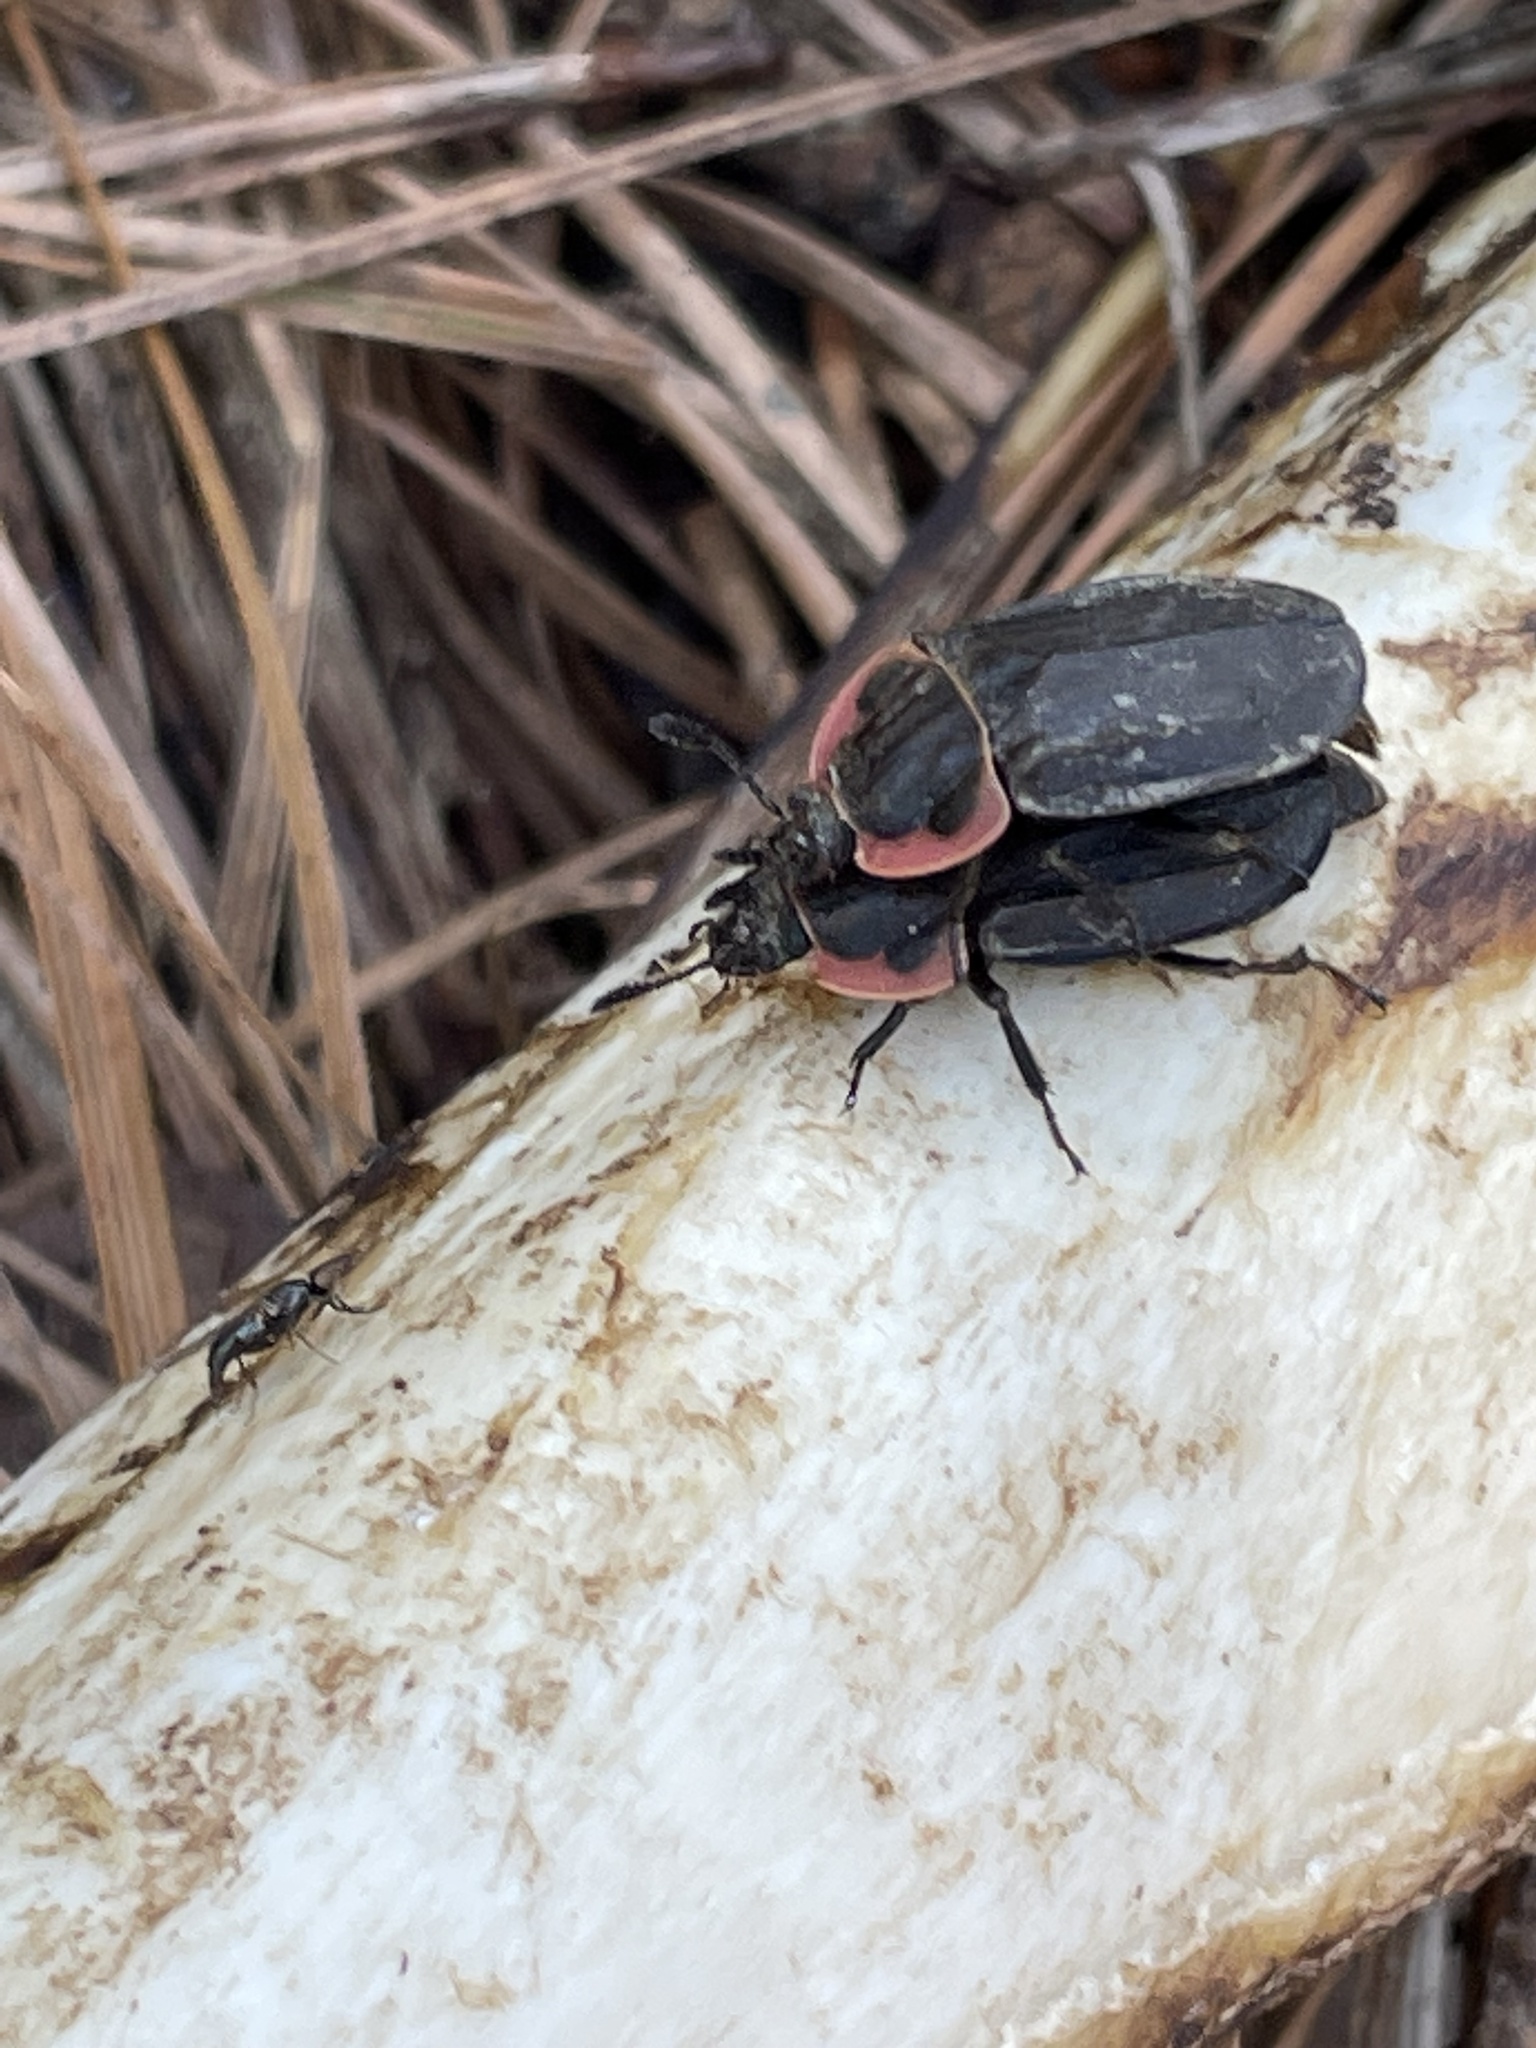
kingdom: Animalia
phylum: Arthropoda
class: Insecta
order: Coleoptera
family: Staphylinidae
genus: Oiceoptoma
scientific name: Oiceoptoma noveboracense
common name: Margined carrion beetle
